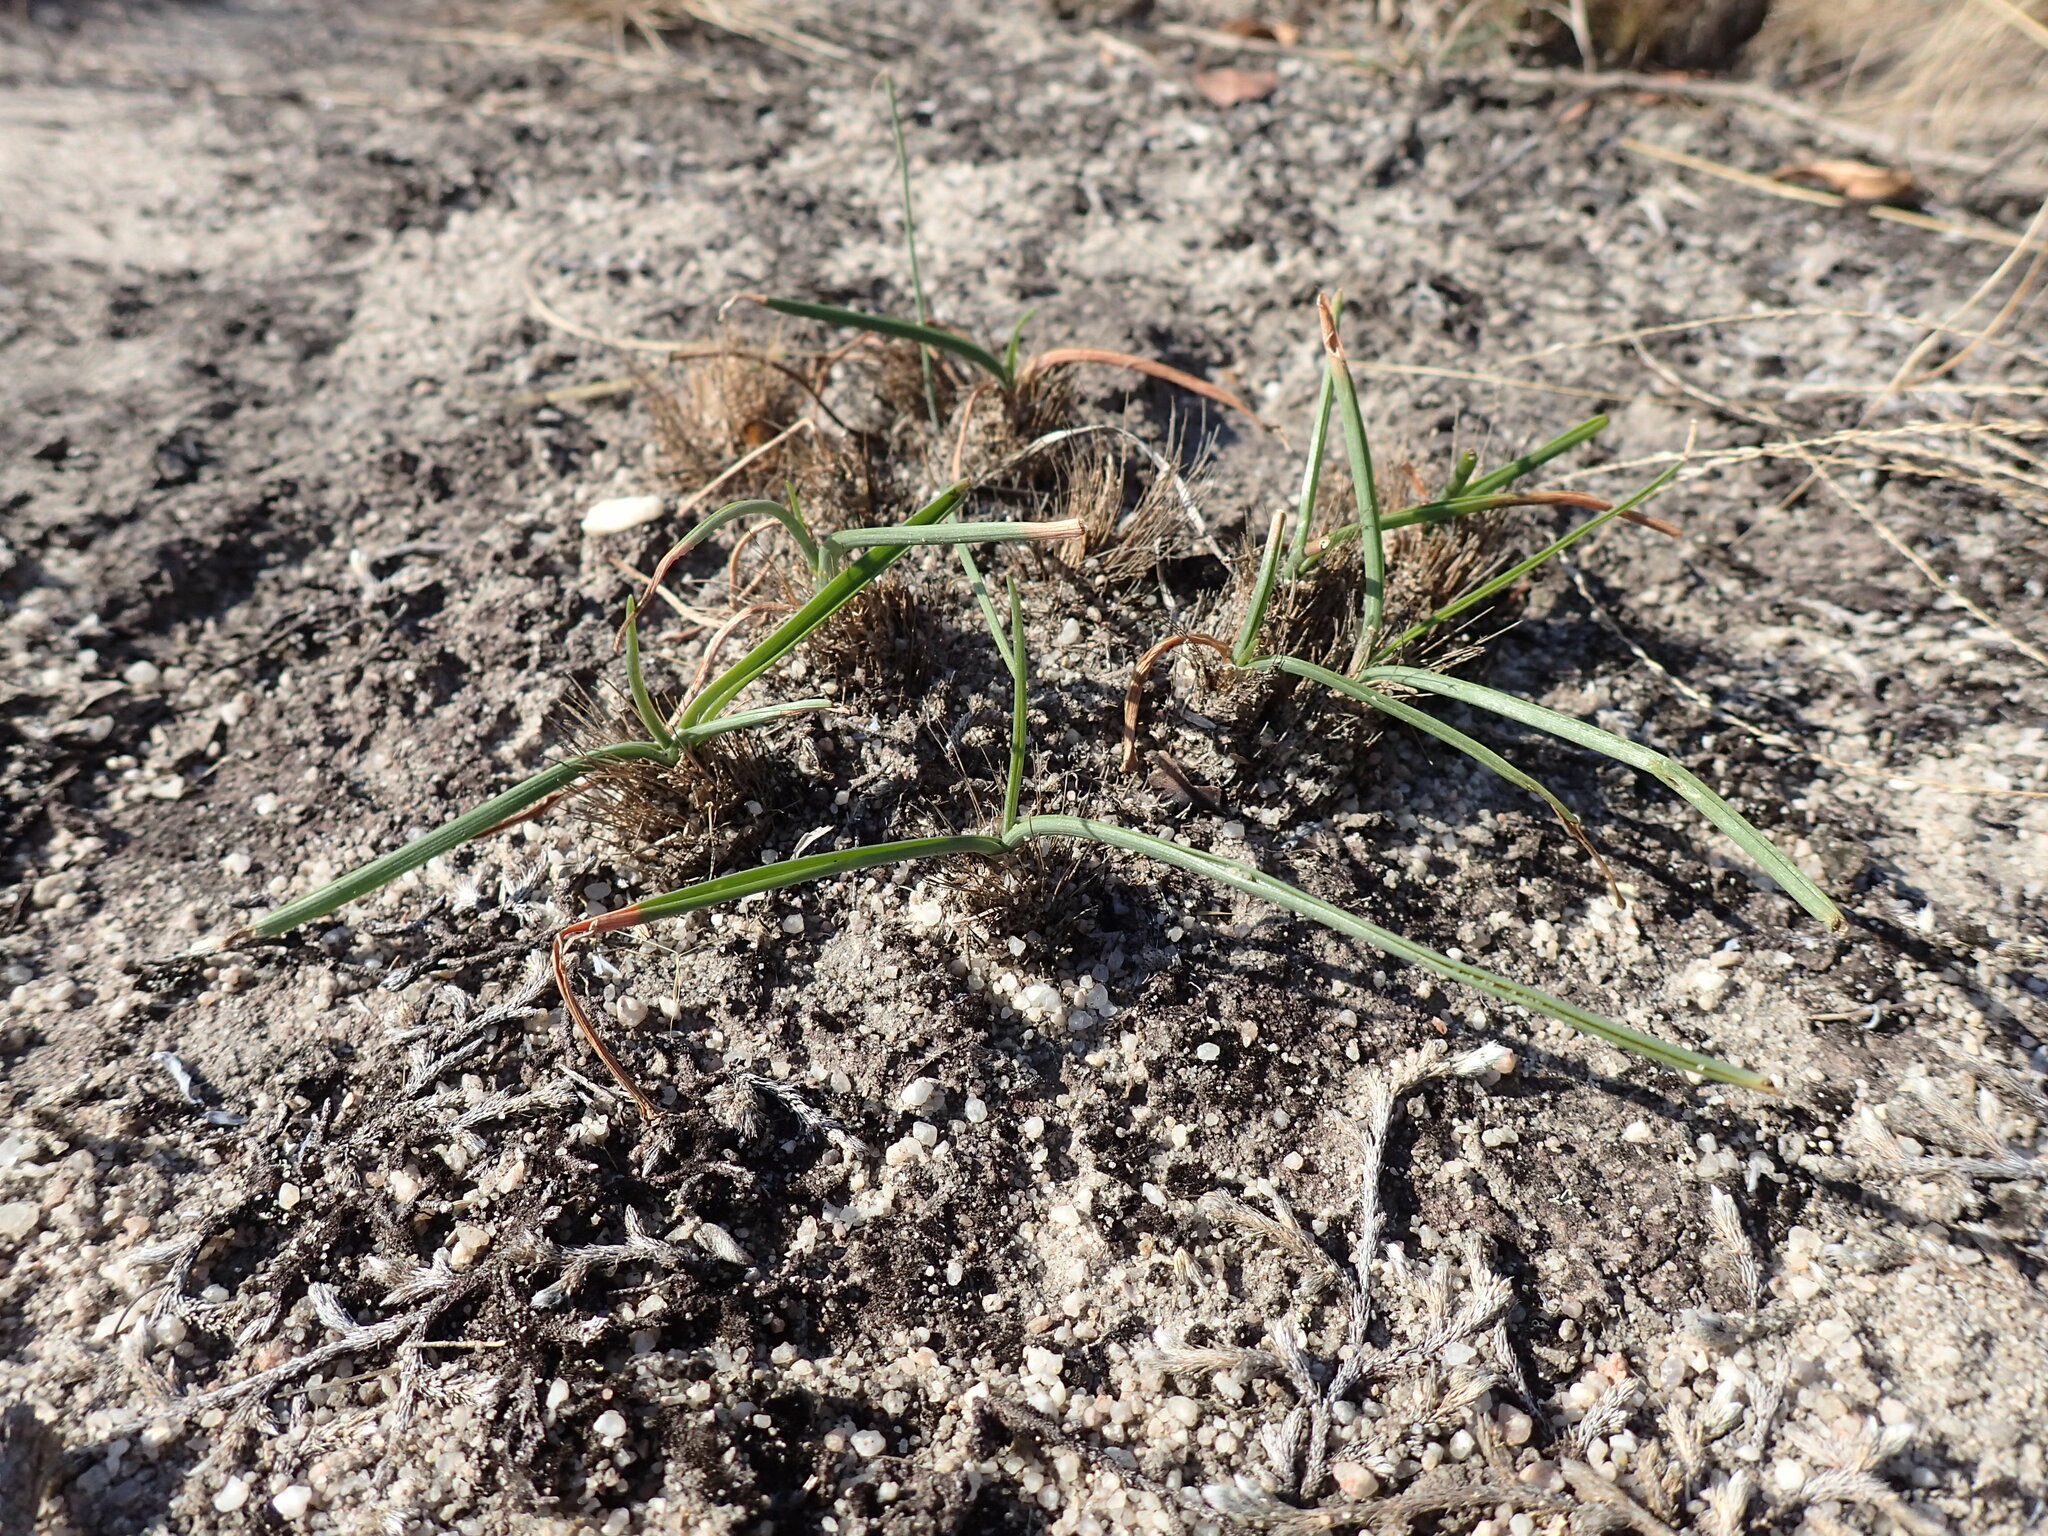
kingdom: Plantae
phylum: Tracheophyta
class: Liliopsida
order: Asparagales
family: Asparagaceae
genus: Albuca
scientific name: Albuca setosa
